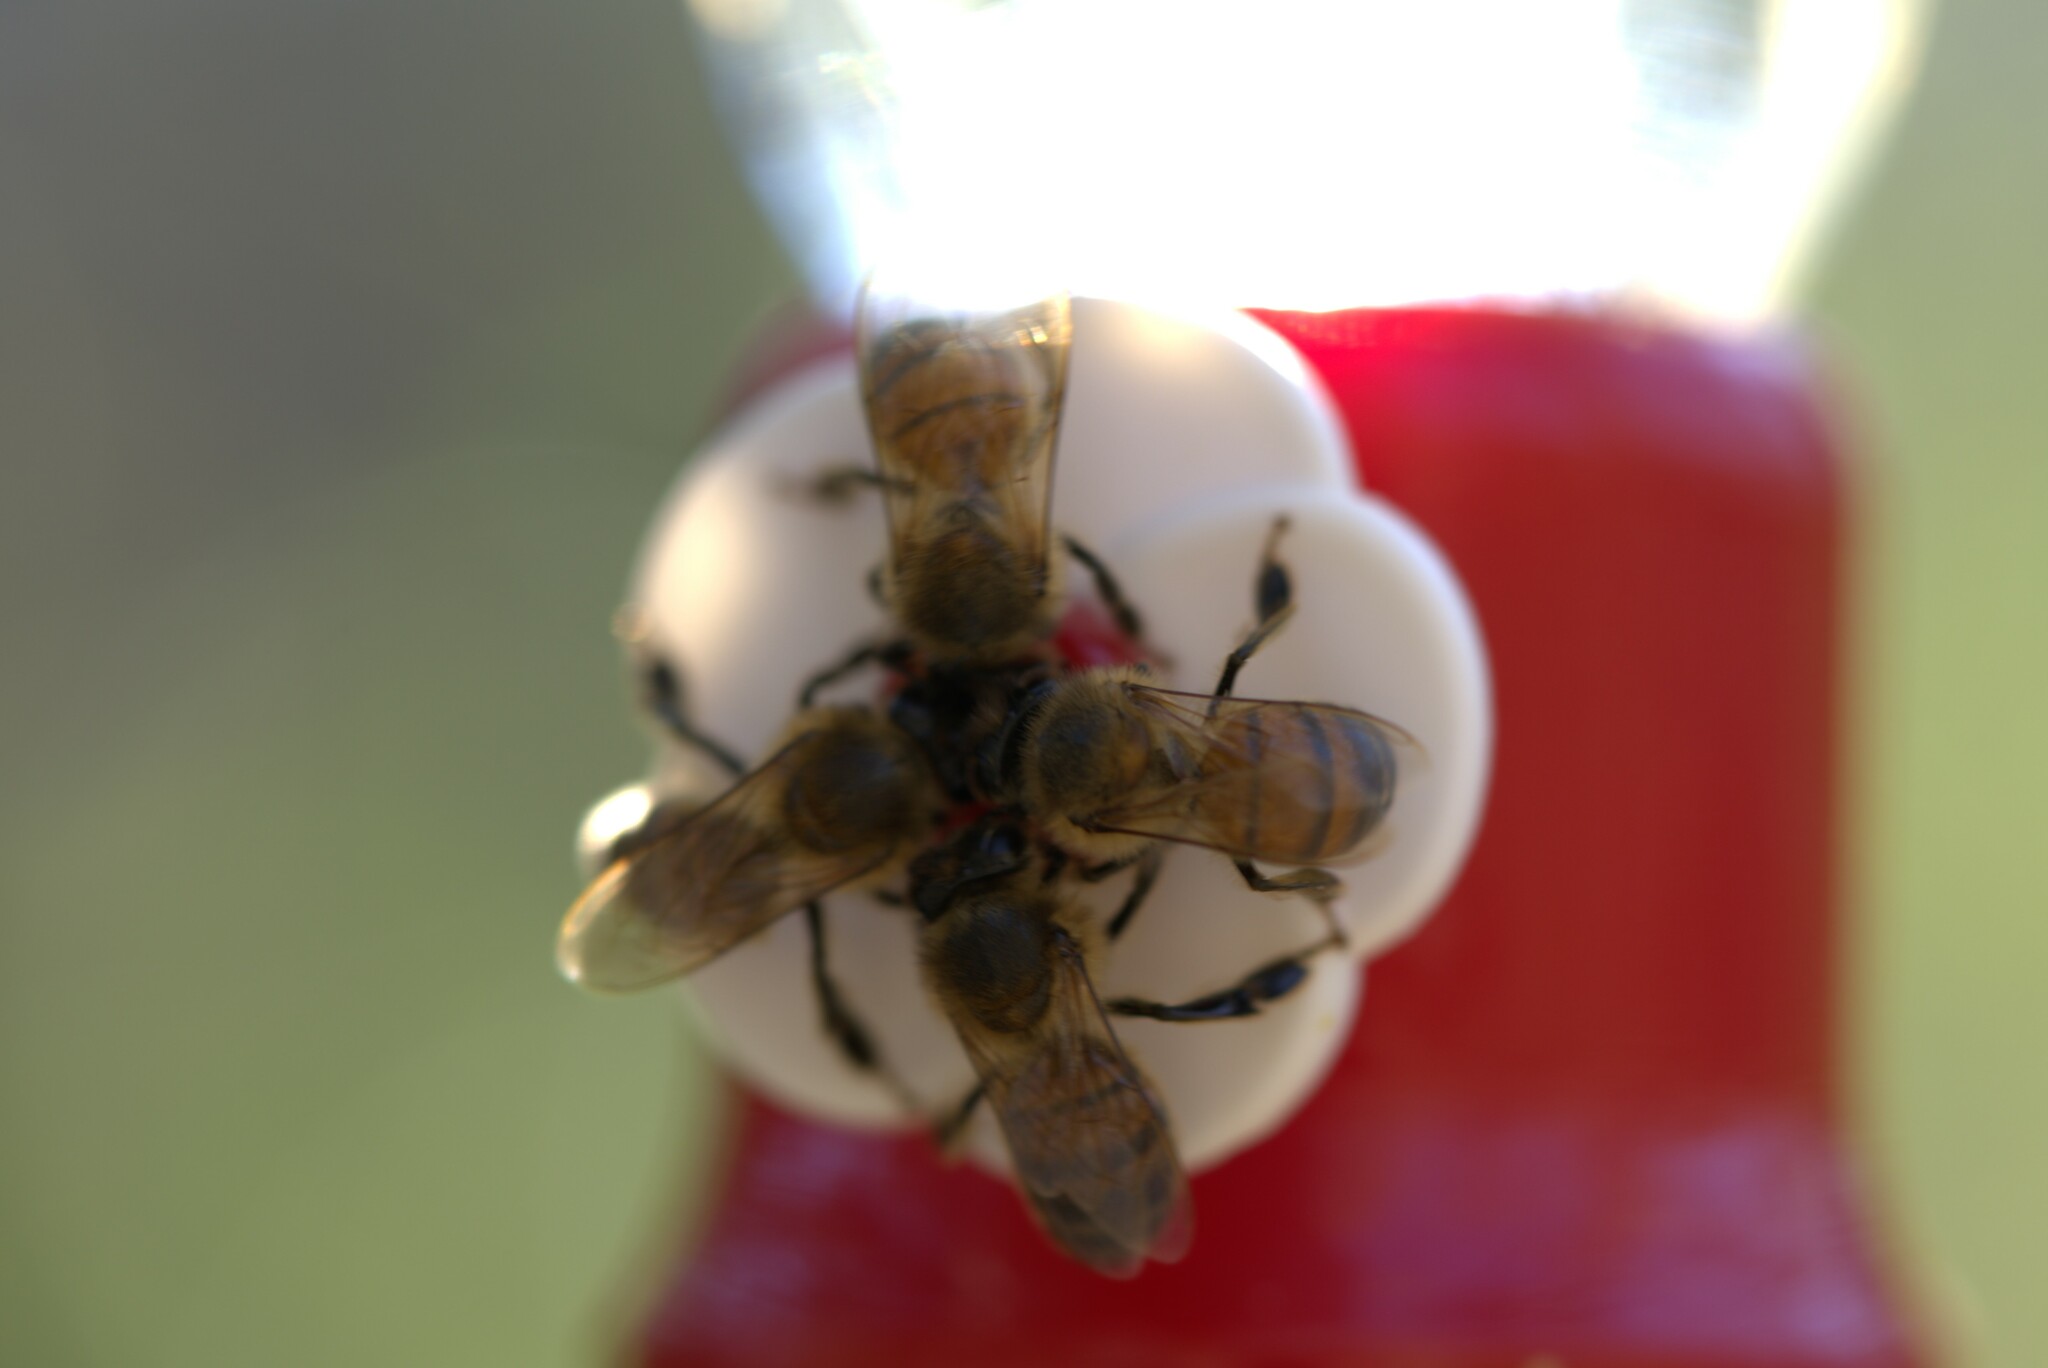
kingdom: Animalia
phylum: Arthropoda
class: Insecta
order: Hymenoptera
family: Apidae
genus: Apis
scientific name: Apis mellifera
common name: Honey bee
